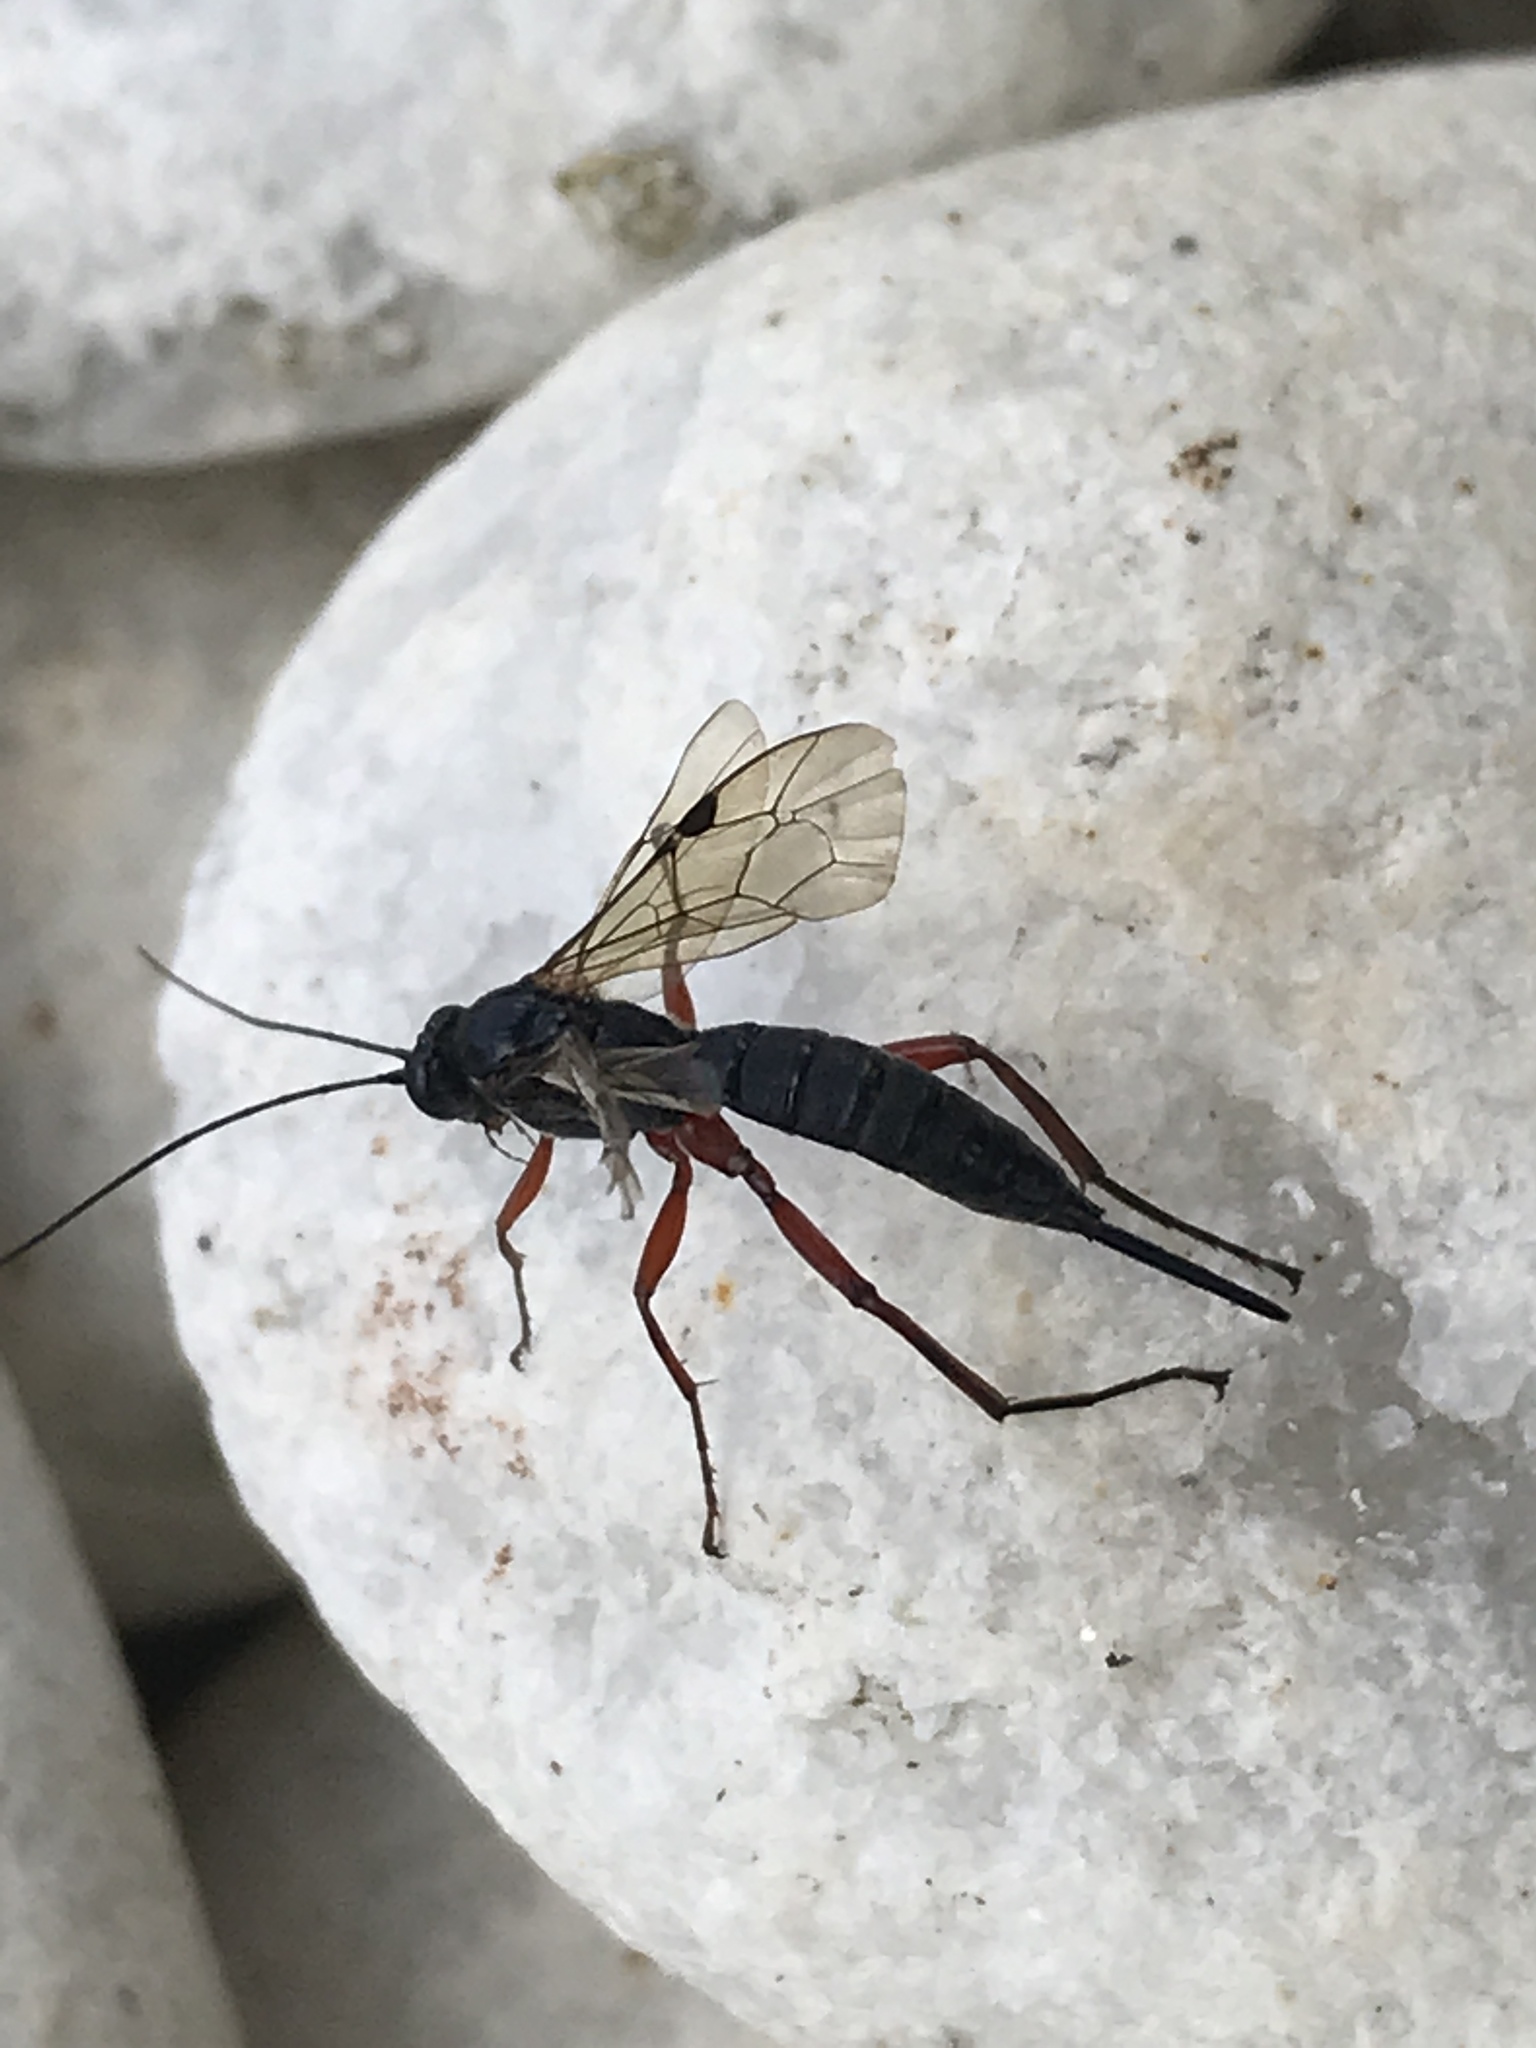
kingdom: Animalia
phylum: Arthropoda
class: Insecta
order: Hymenoptera
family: Ichneumonidae
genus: Pimpla
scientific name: Pimpla turionellae
